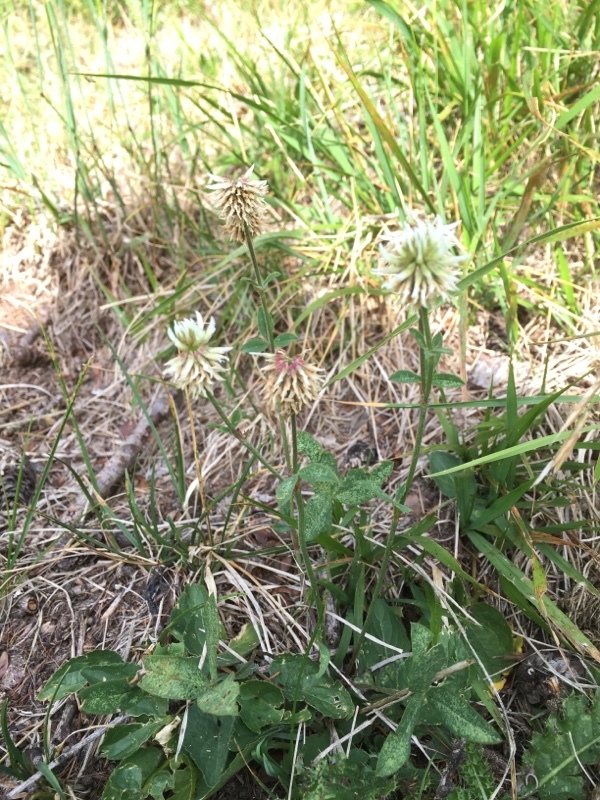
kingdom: Plantae
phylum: Tracheophyta
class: Magnoliopsida
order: Fabales
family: Fabaceae
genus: Trifolium
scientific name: Trifolium montanum
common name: Mountain clover
